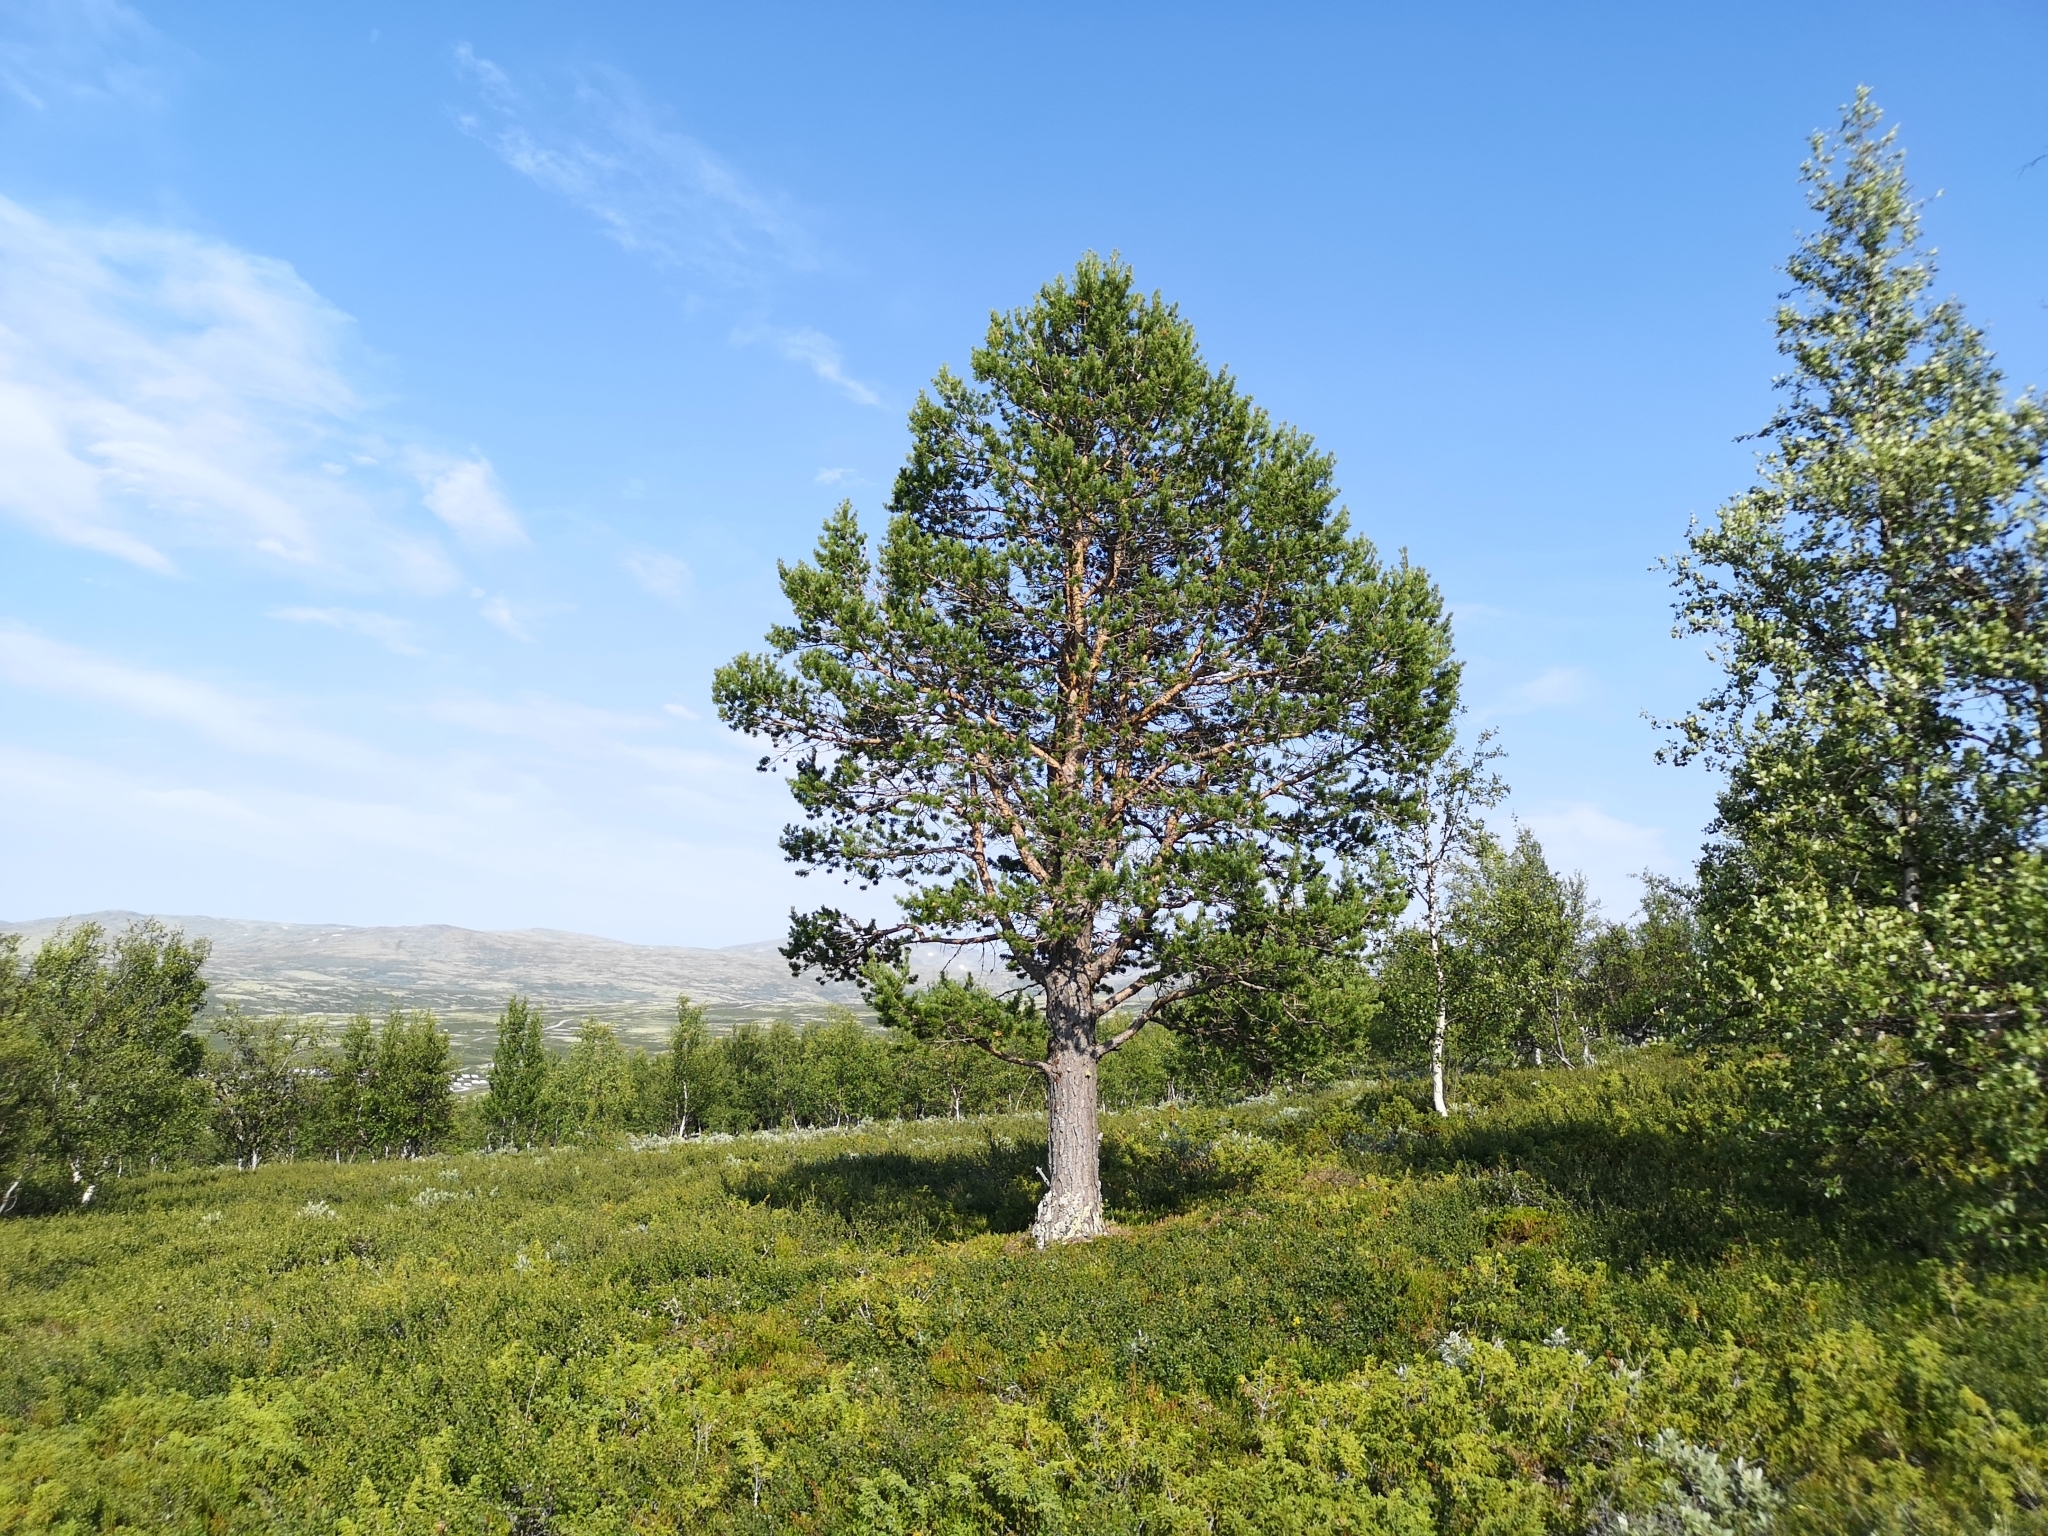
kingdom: Plantae
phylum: Tracheophyta
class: Pinopsida
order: Pinales
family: Pinaceae
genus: Pinus
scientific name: Pinus sylvestris
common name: Scots pine
